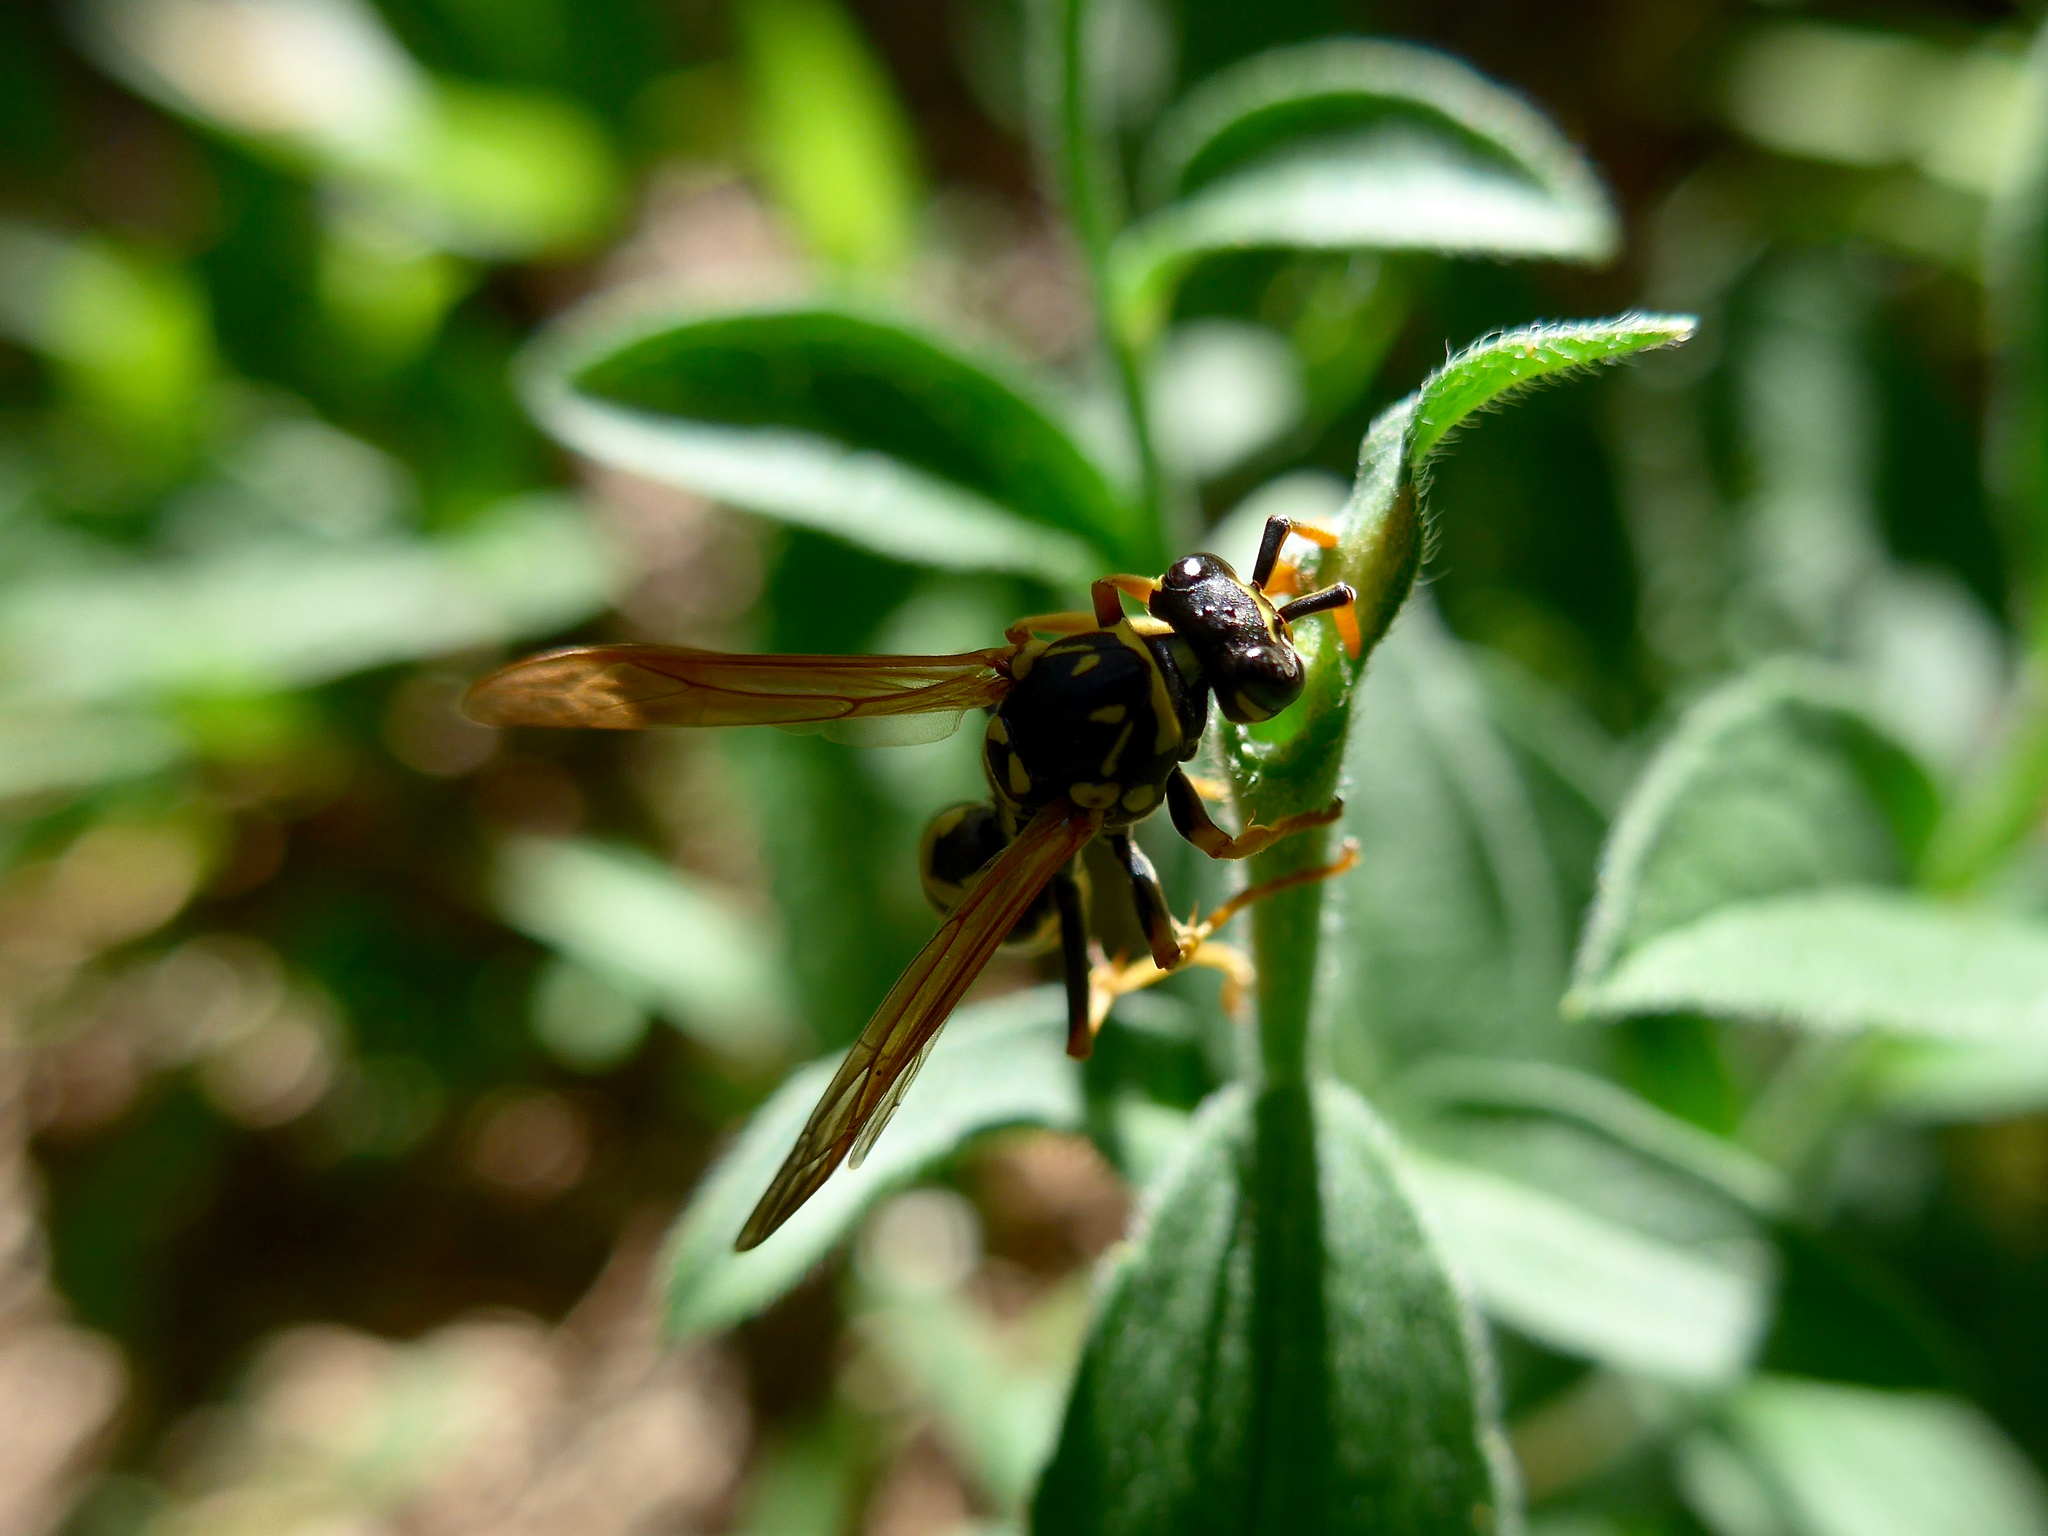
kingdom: Animalia
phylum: Arthropoda
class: Insecta
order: Hymenoptera
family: Eumenidae
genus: Polistes
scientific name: Polistes dominula
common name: Paper wasp
